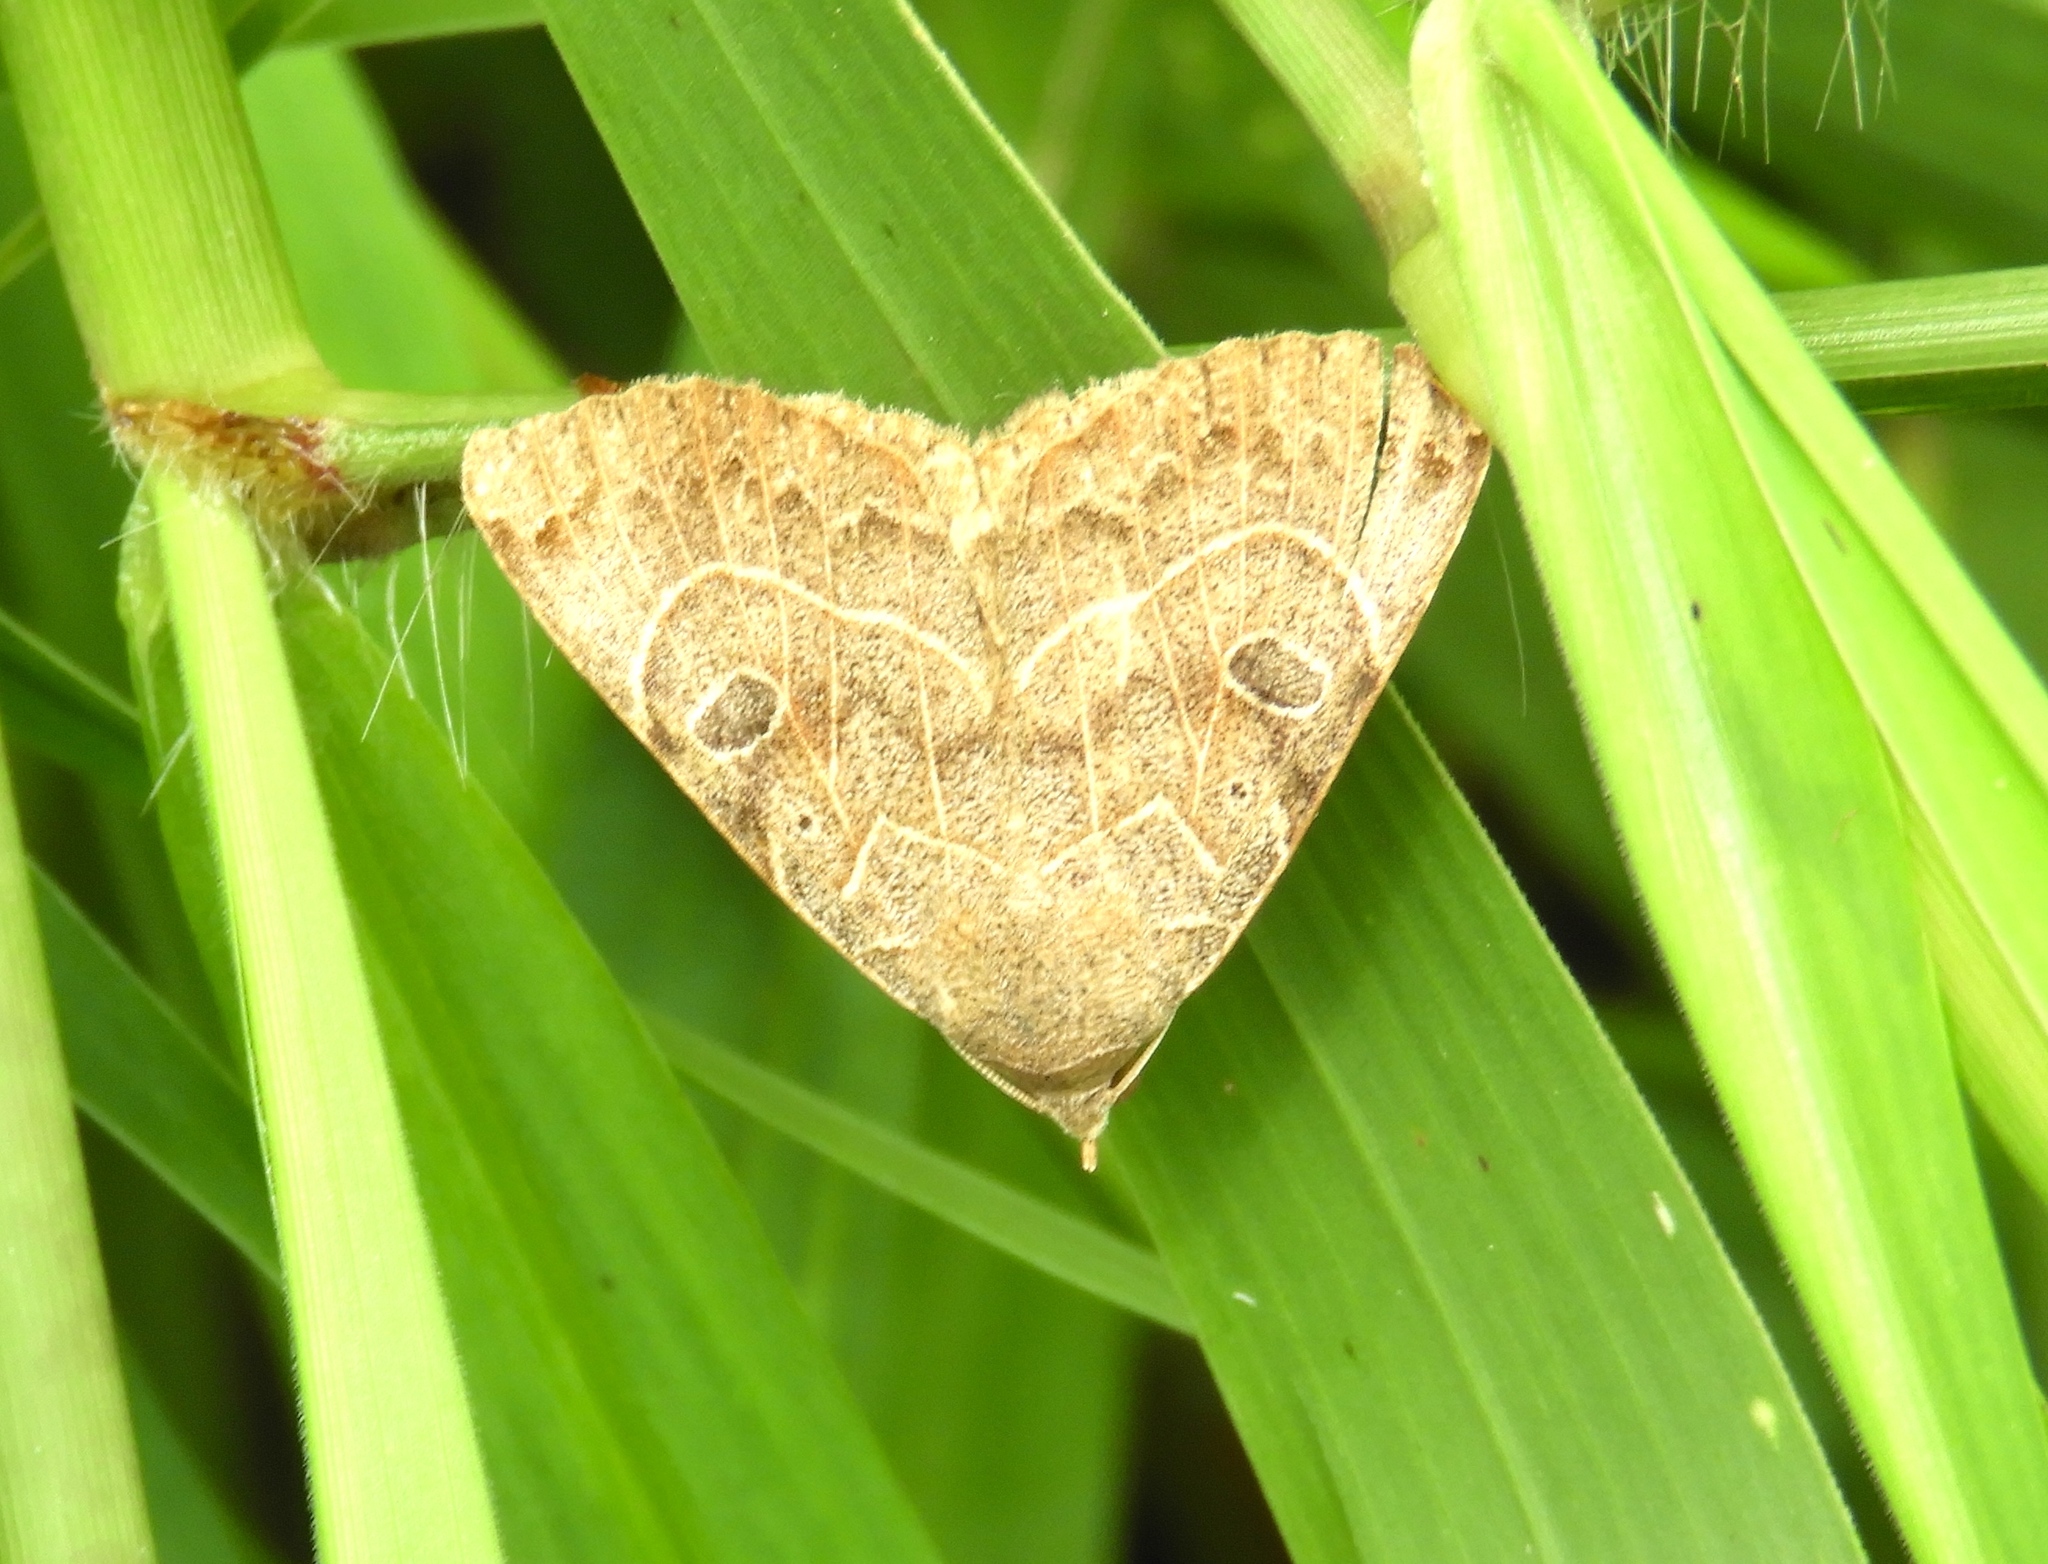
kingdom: Animalia
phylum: Arthropoda
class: Insecta
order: Lepidoptera
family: Erebidae
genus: Isogona
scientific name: Isogona scindens
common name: Owlet moth
